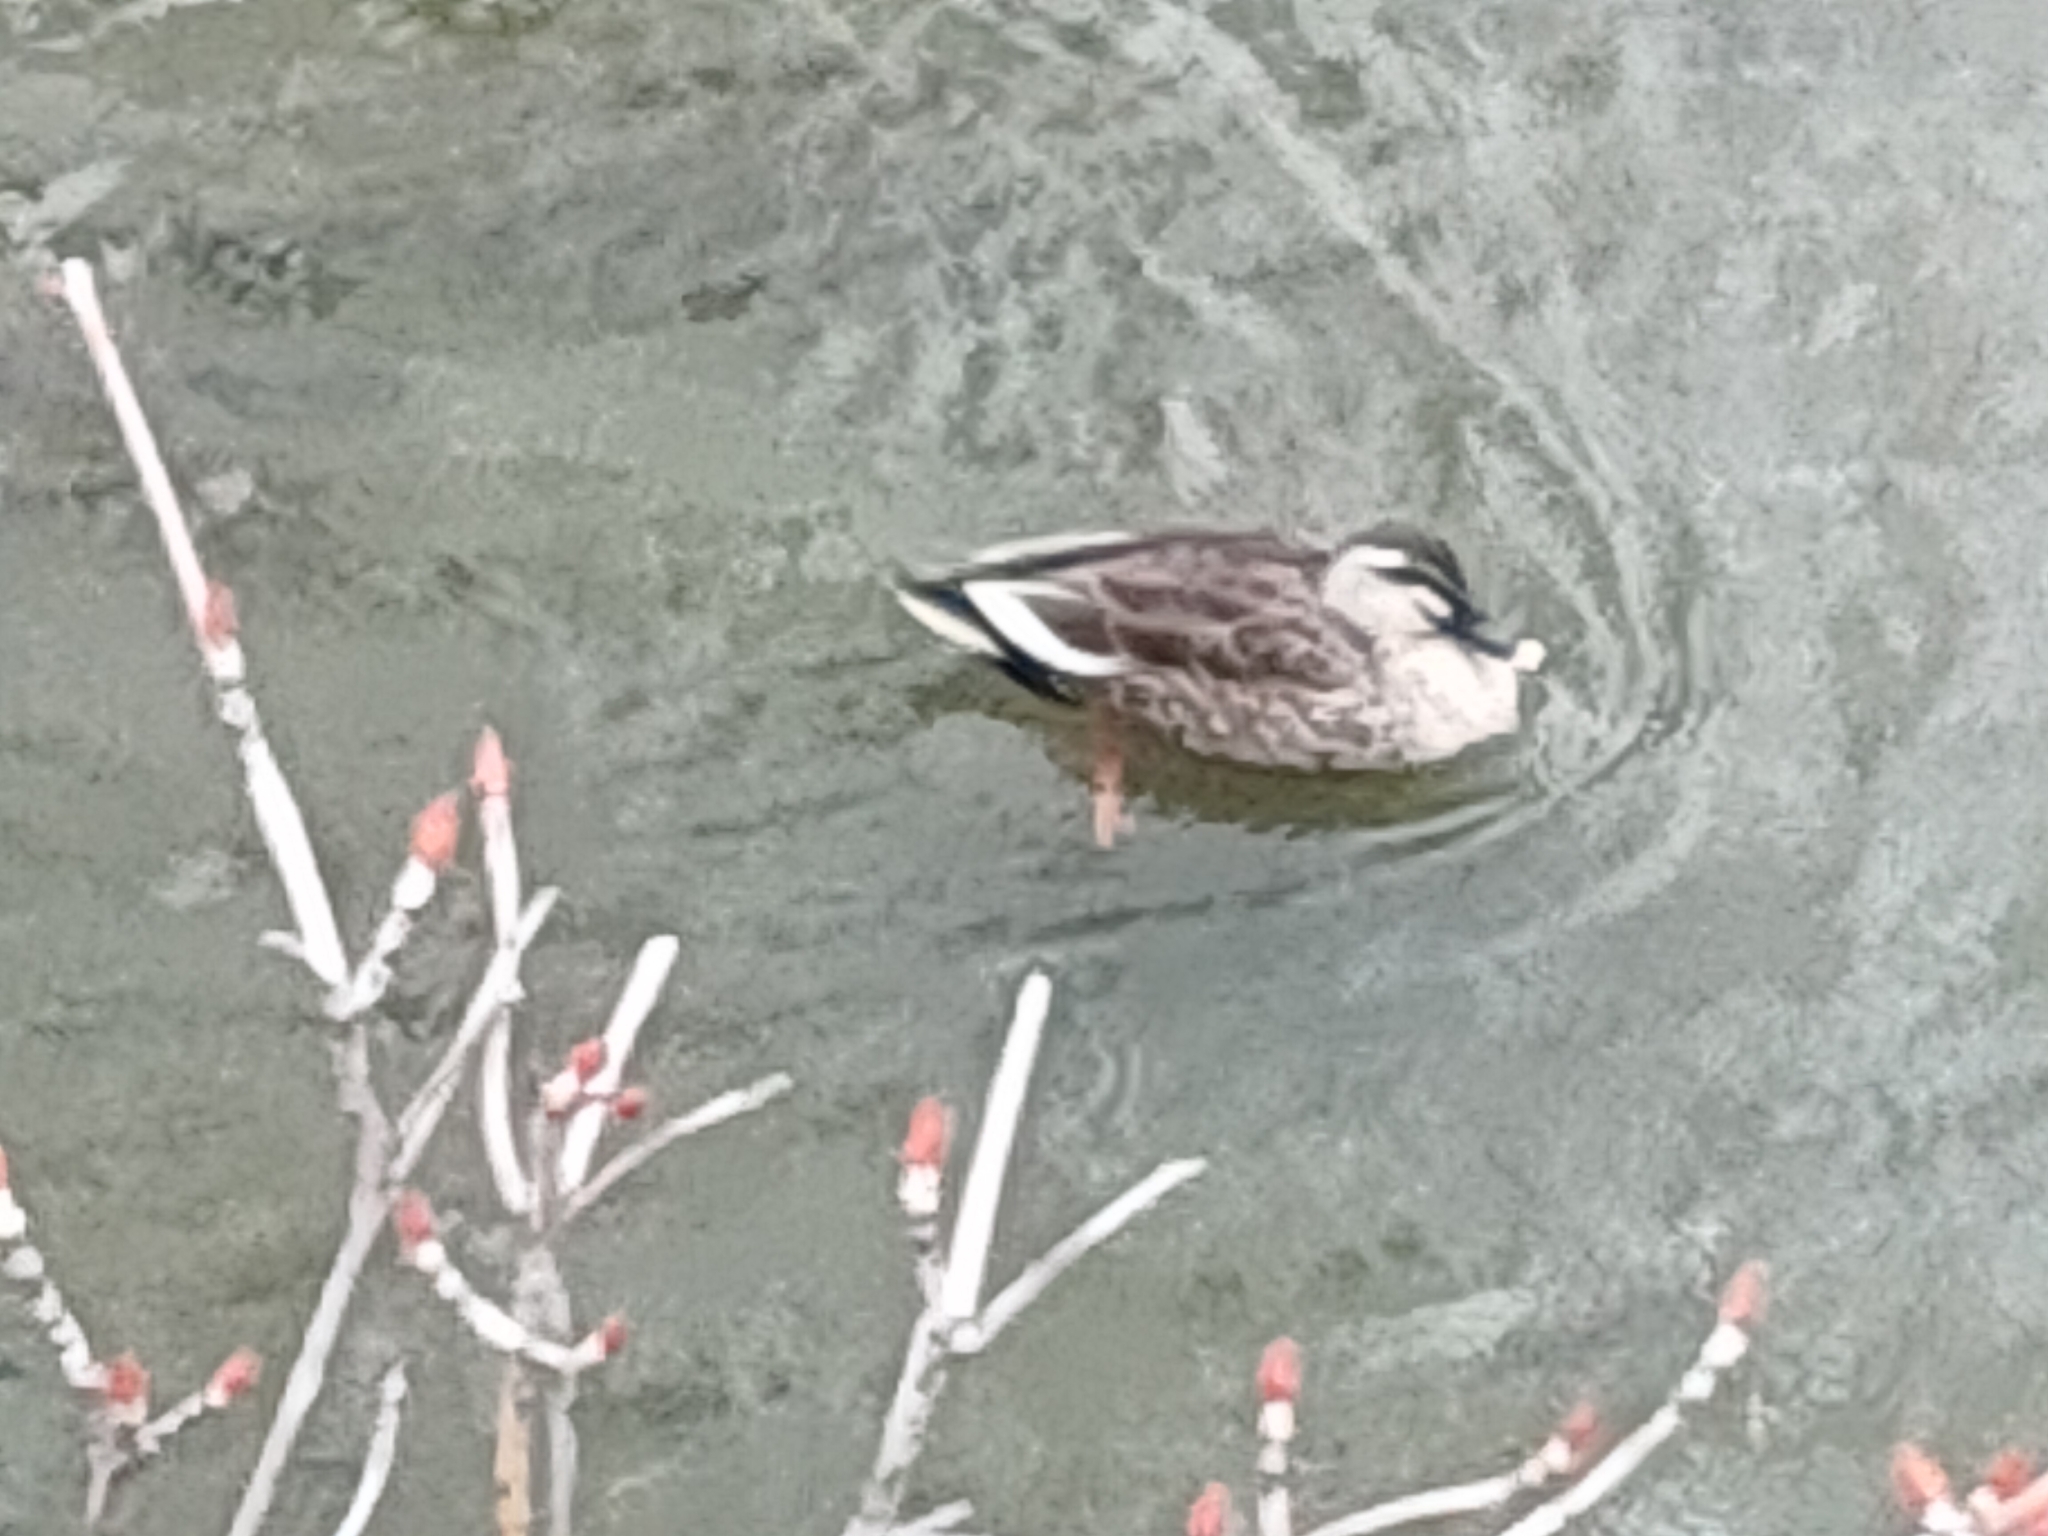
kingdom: Animalia
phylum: Chordata
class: Aves
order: Anseriformes
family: Anatidae
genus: Anas
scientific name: Anas zonorhyncha
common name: Eastern spot-billed duck
